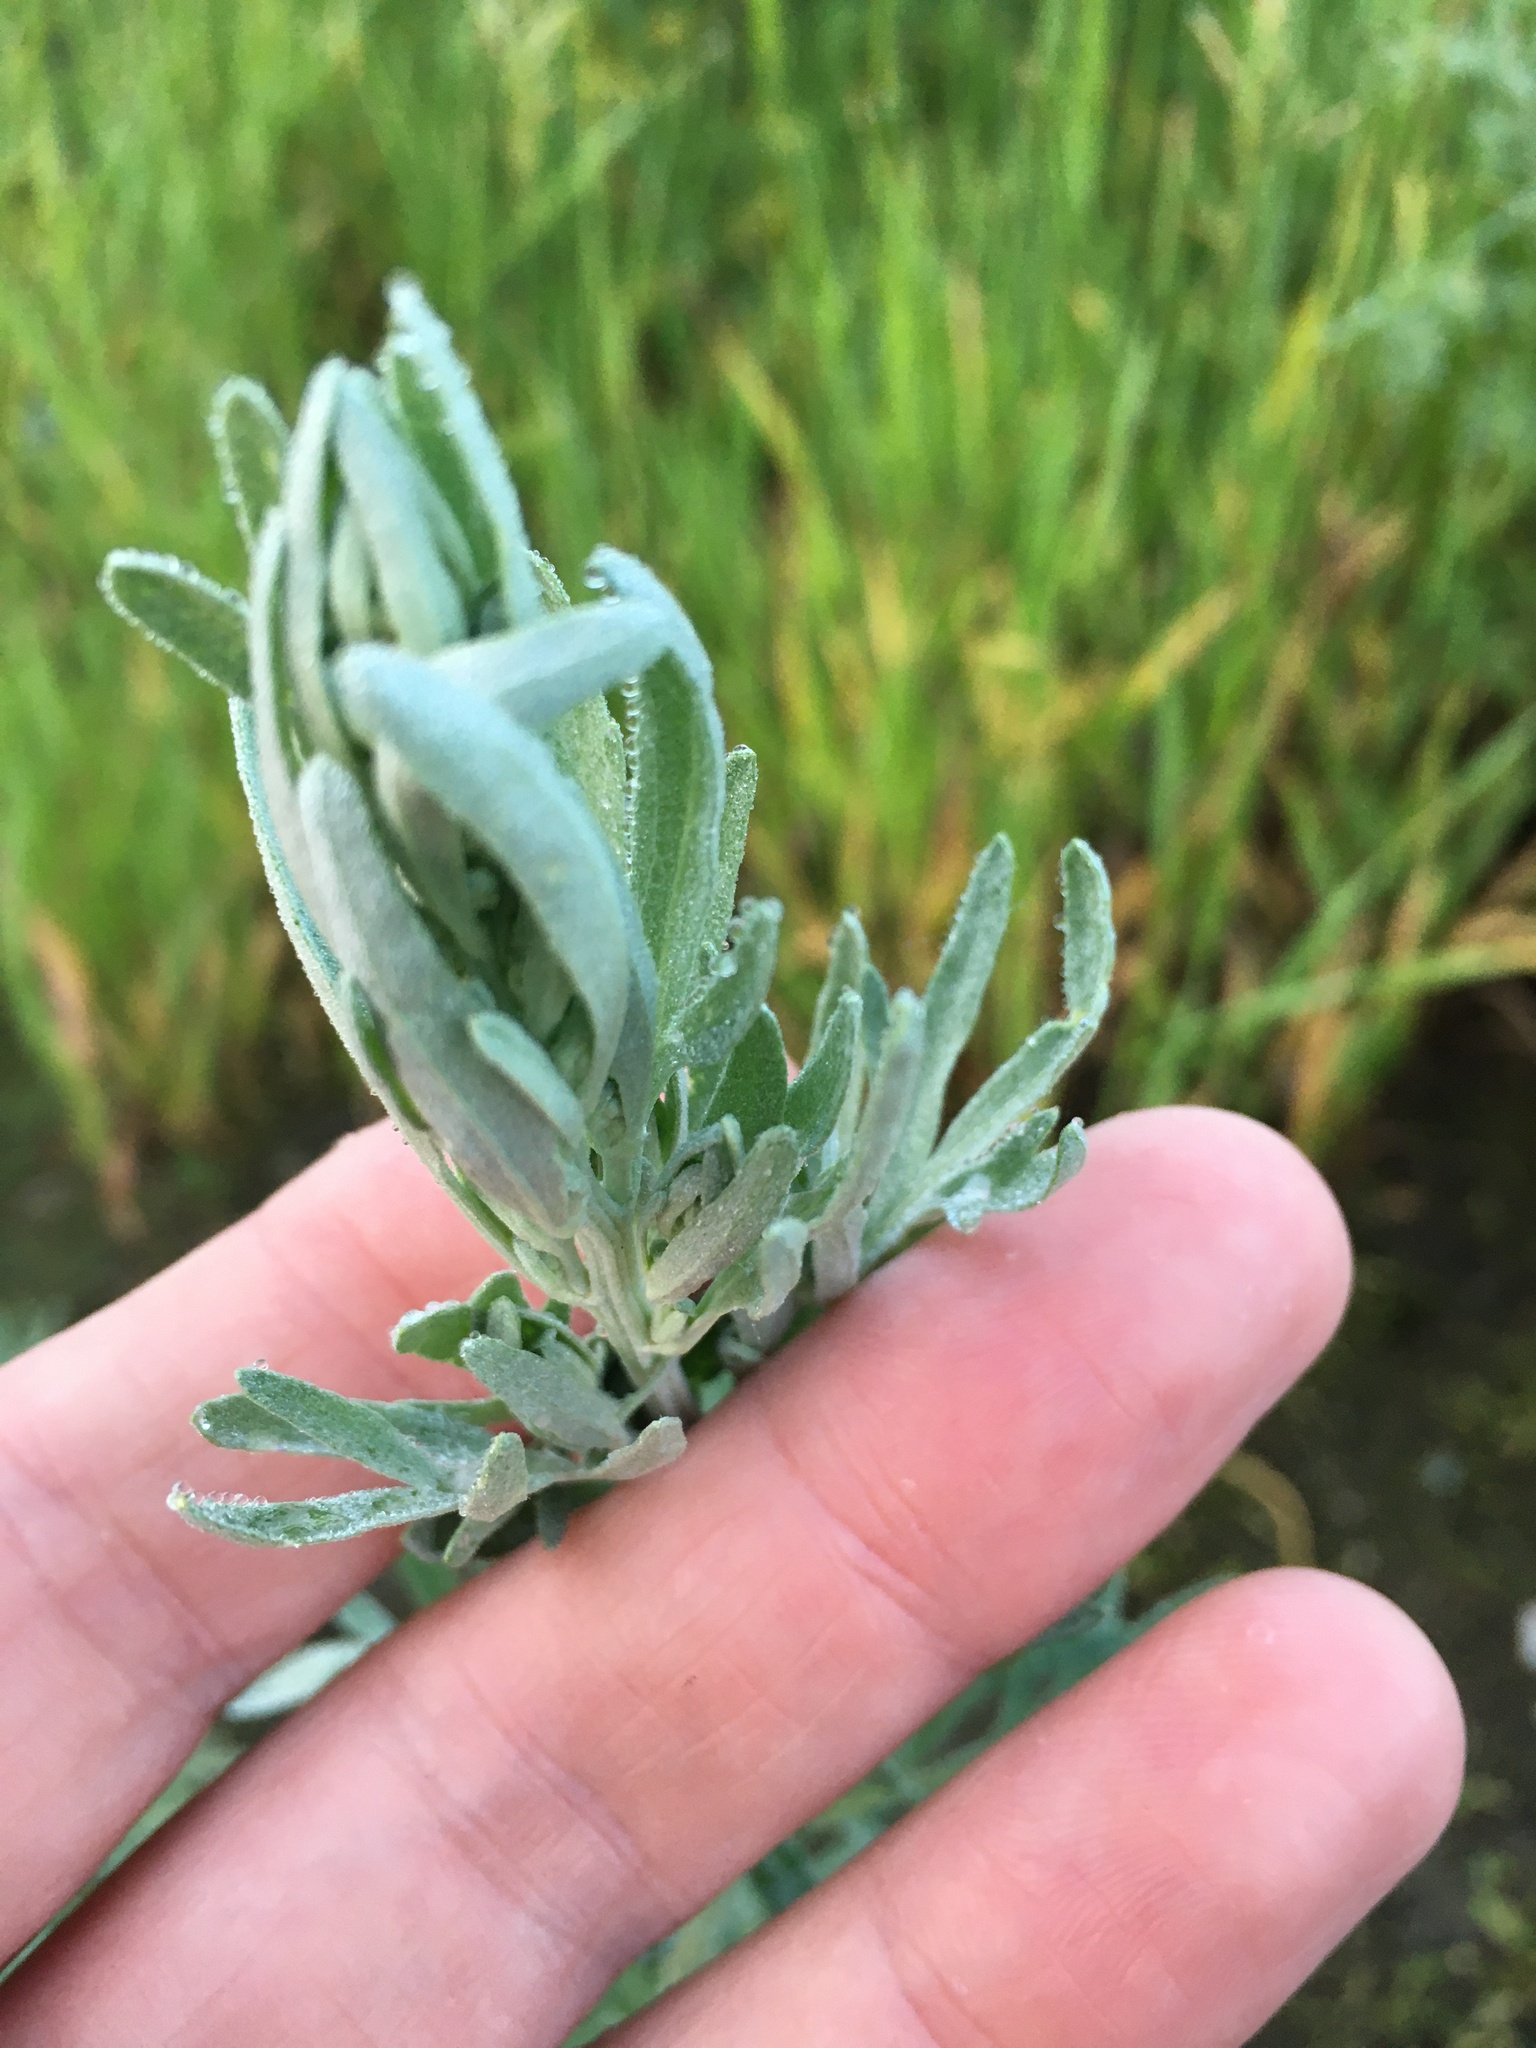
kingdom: Plantae
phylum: Tracheophyta
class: Magnoliopsida
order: Asterales
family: Asteraceae
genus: Artemisia
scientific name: Artemisia absinthium
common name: Wormwood
